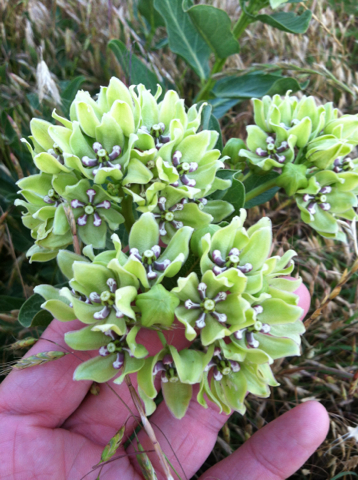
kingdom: Plantae
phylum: Tracheophyta
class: Magnoliopsida
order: Gentianales
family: Apocynaceae
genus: Asclepias
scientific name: Asclepias viridis
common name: Antelope-horns
